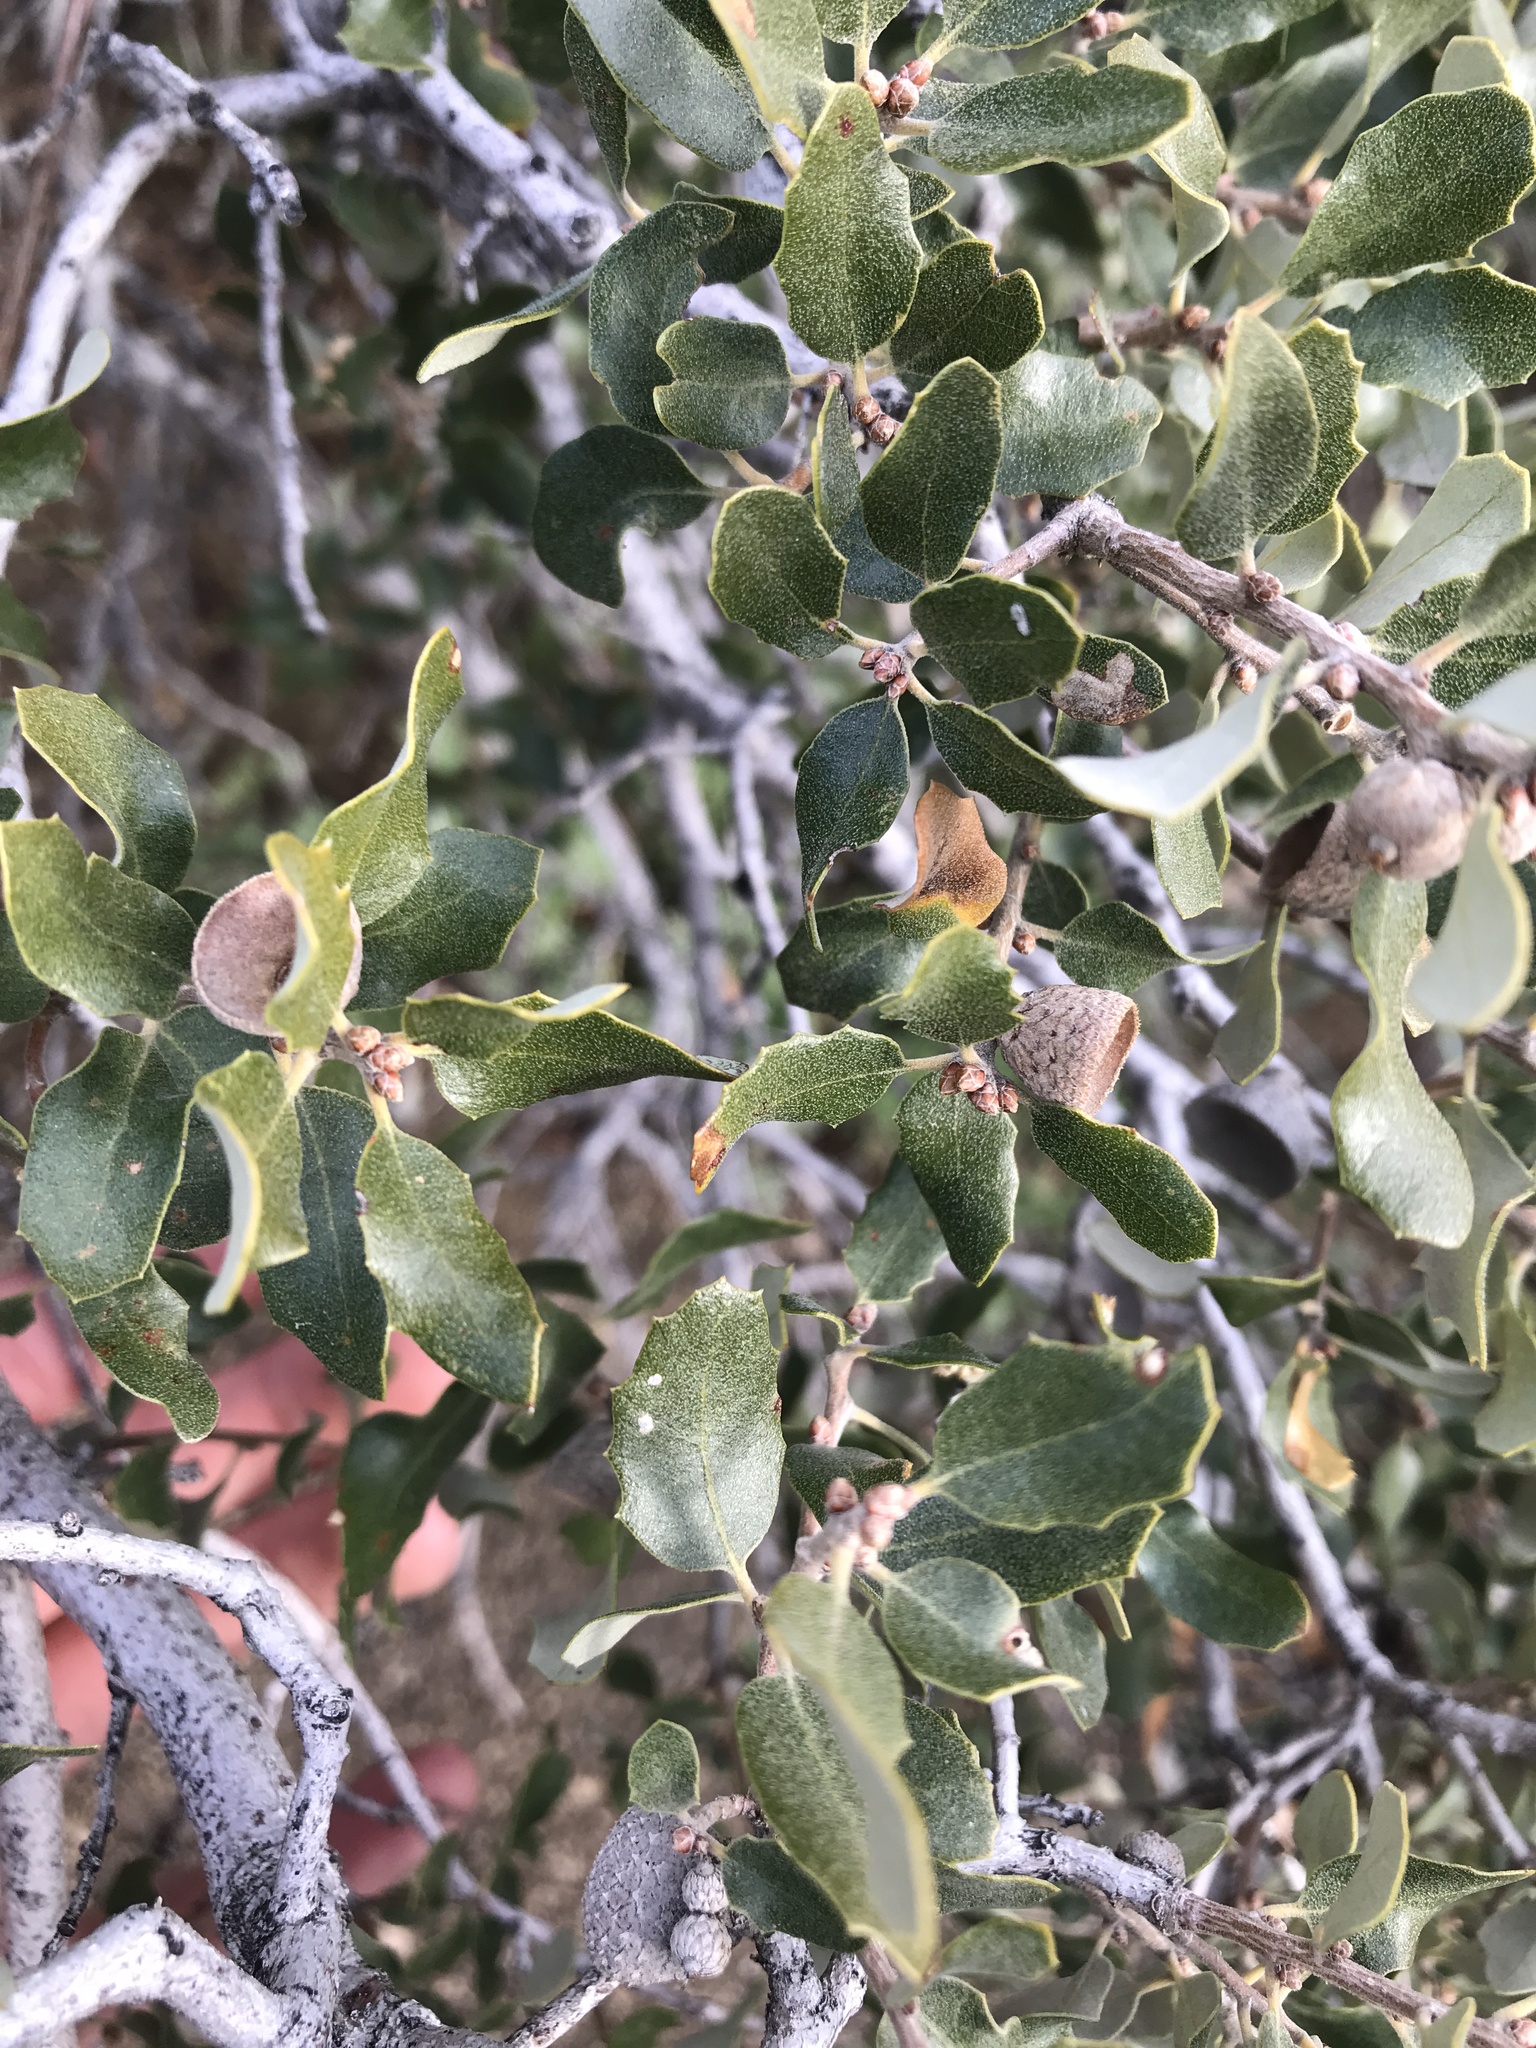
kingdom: Plantae
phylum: Tracheophyta
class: Magnoliopsida
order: Fagales
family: Fagaceae
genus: Quercus
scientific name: Quercus cornelius-mulleri
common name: Muller oak
